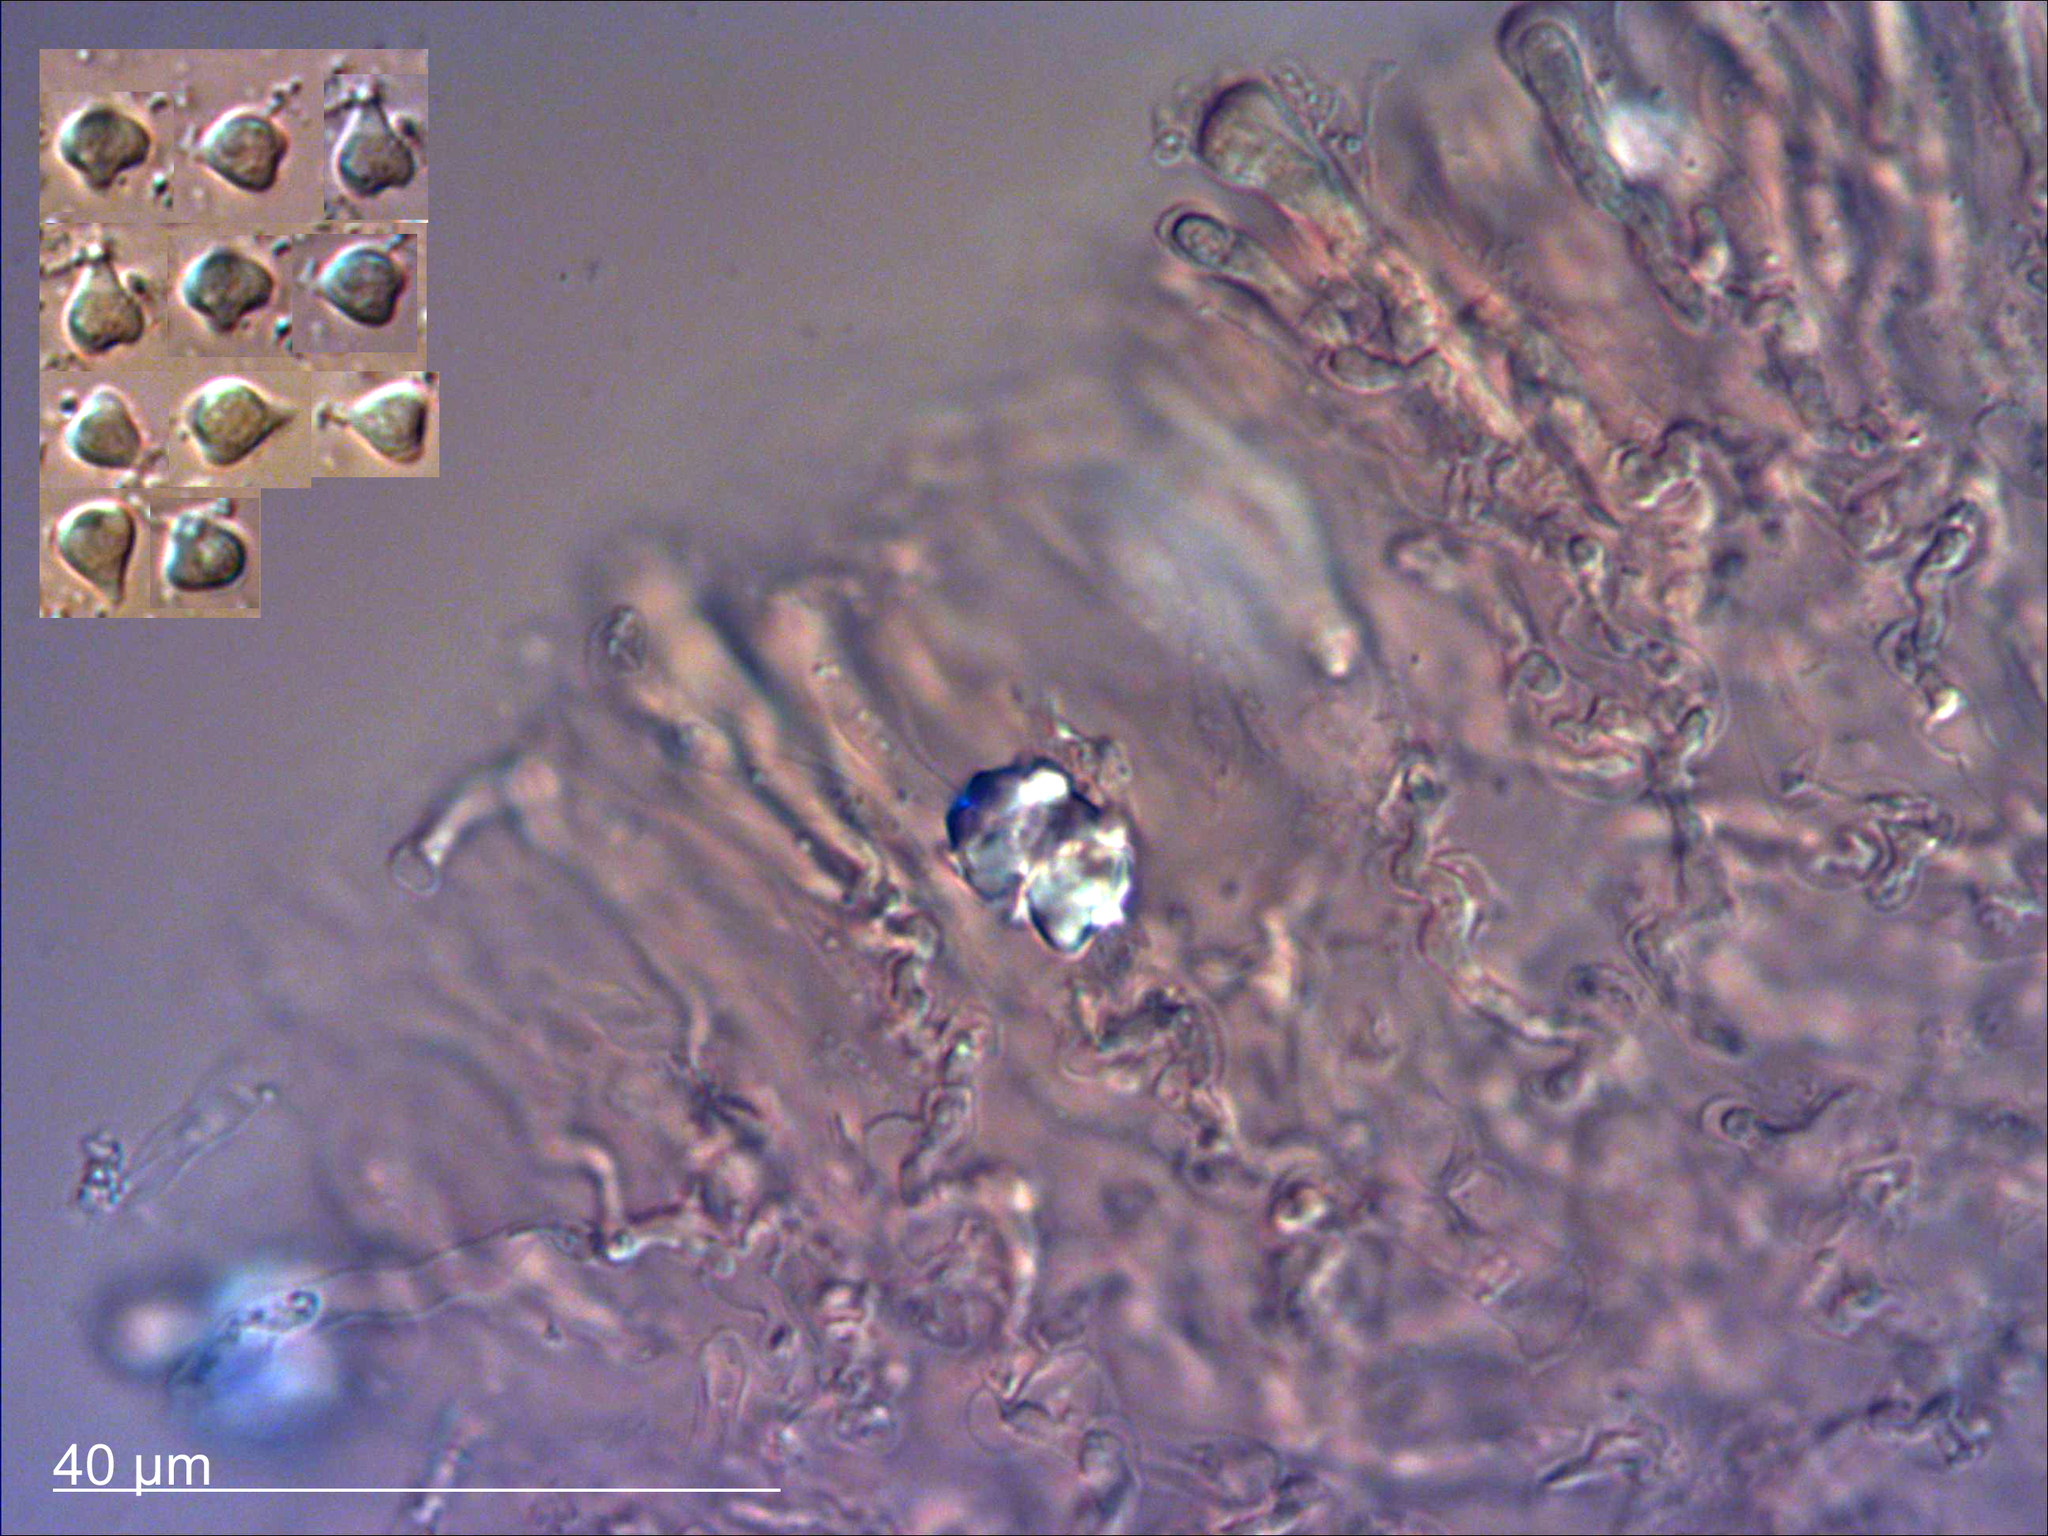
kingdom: Fungi
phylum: Basidiomycota
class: Agaricomycetes
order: Agaricales
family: Typhulaceae
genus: Typhula
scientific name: Typhula culmigena
